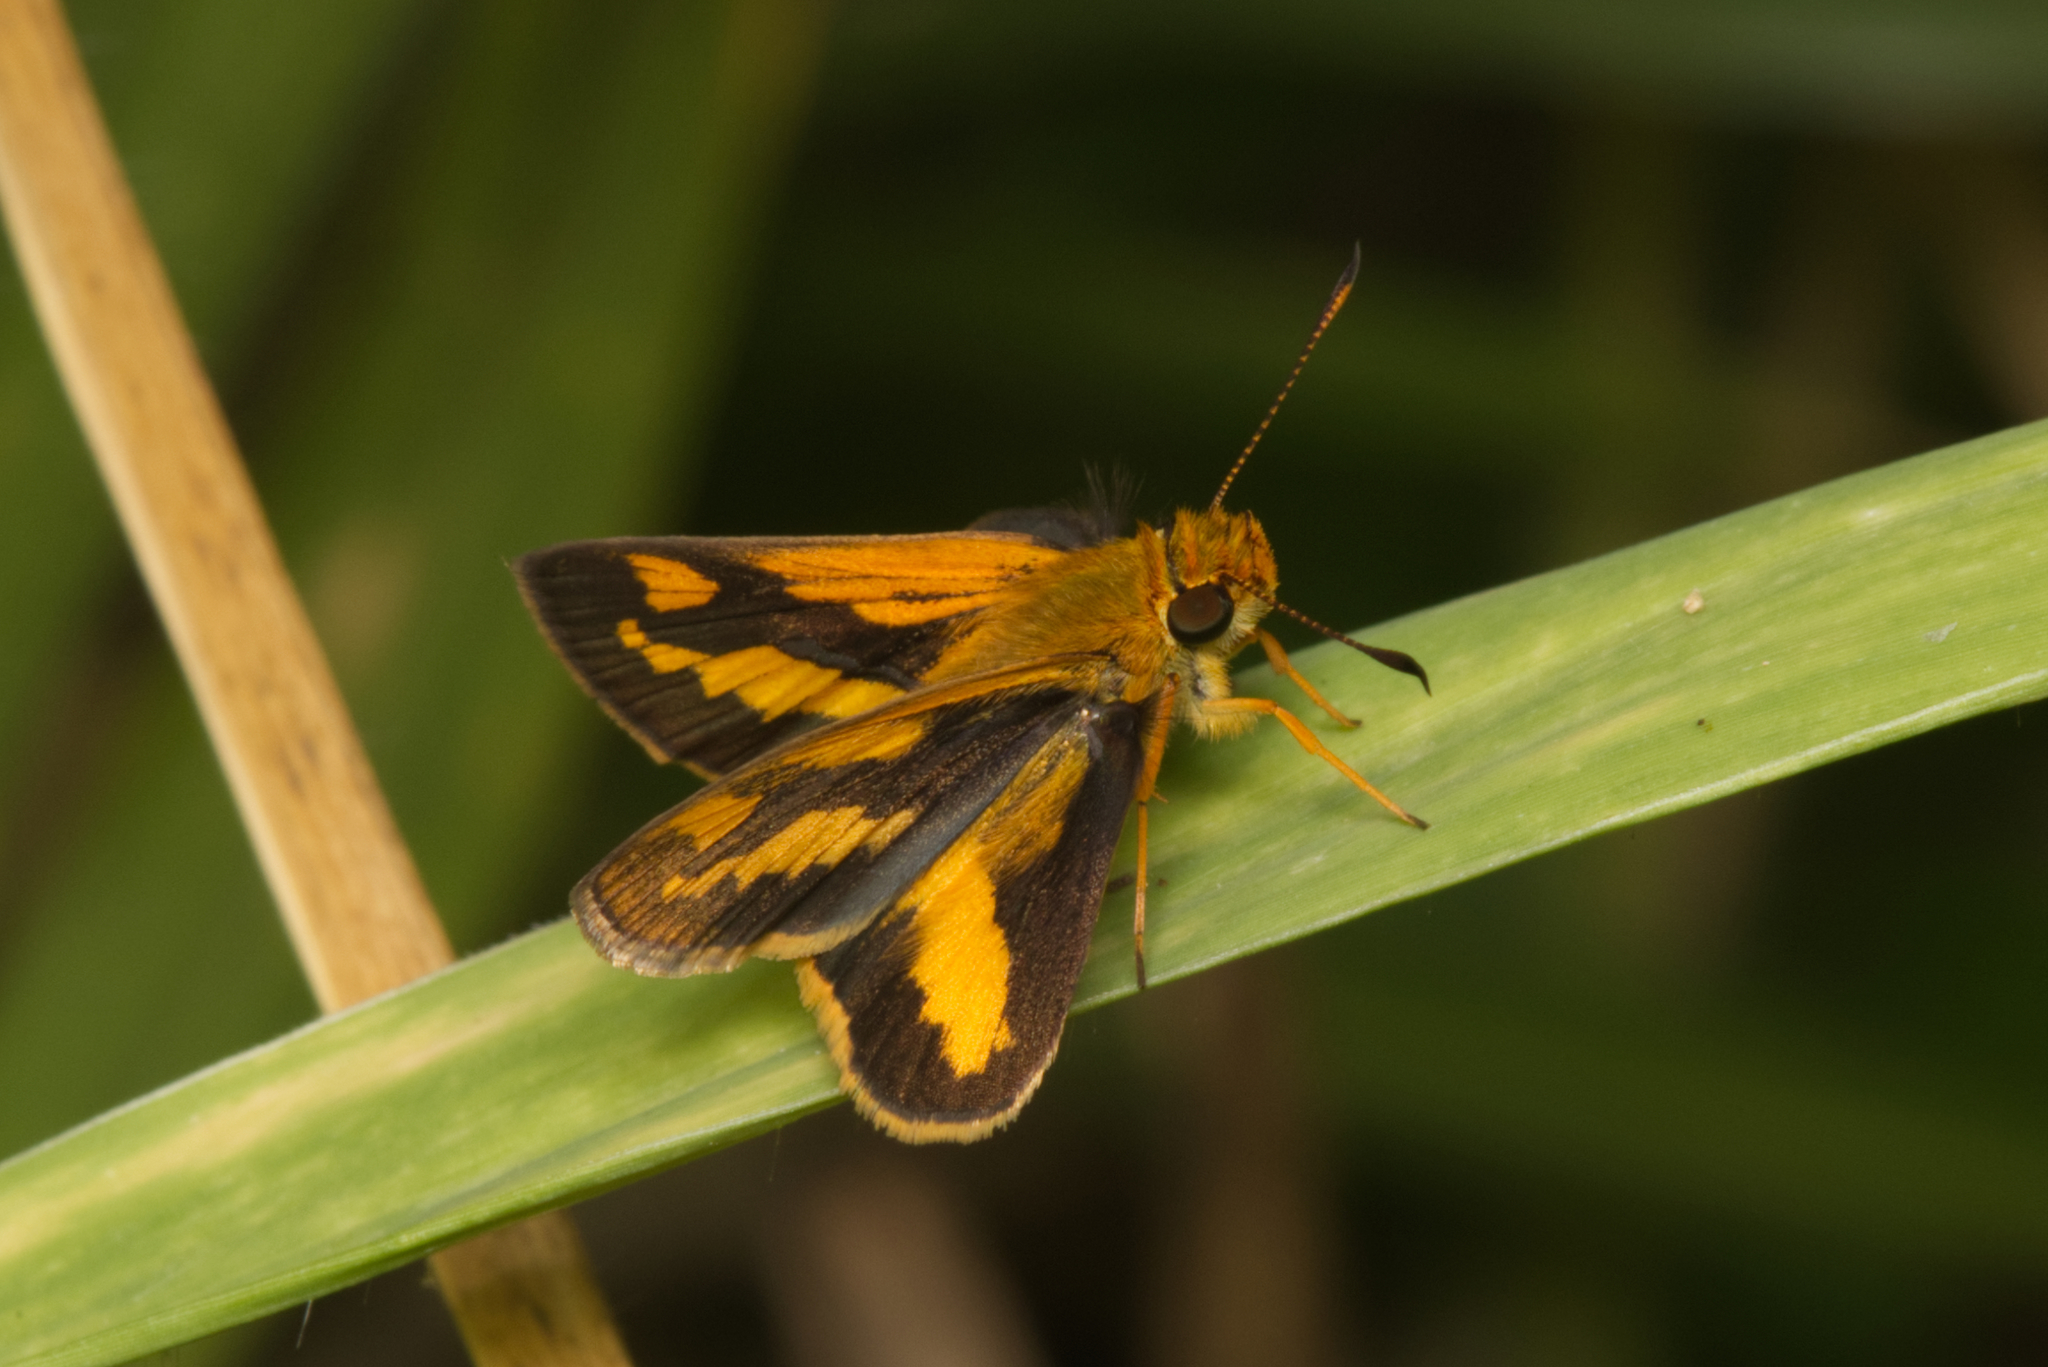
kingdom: Animalia
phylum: Arthropoda
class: Insecta
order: Lepidoptera
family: Hesperiidae
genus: Arrhenes
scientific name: Arrhenes marnas
